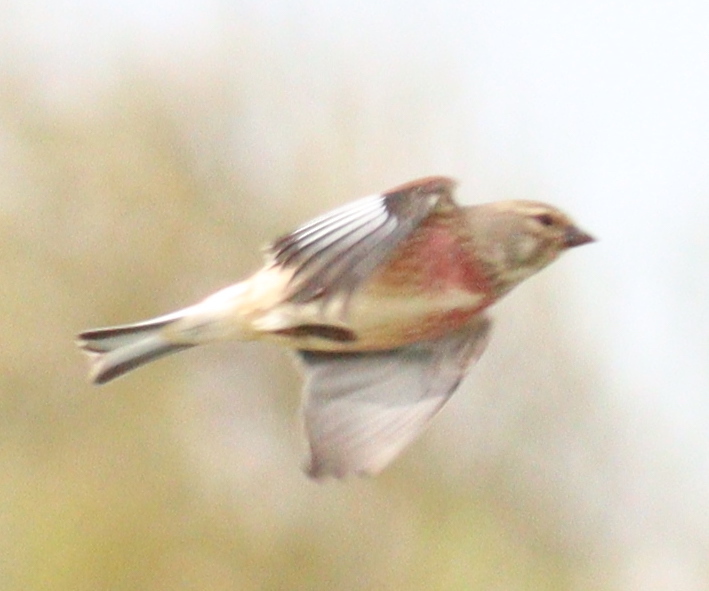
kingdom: Animalia
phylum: Chordata
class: Aves
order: Passeriformes
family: Fringillidae
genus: Linaria
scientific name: Linaria cannabina
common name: Common linnet
